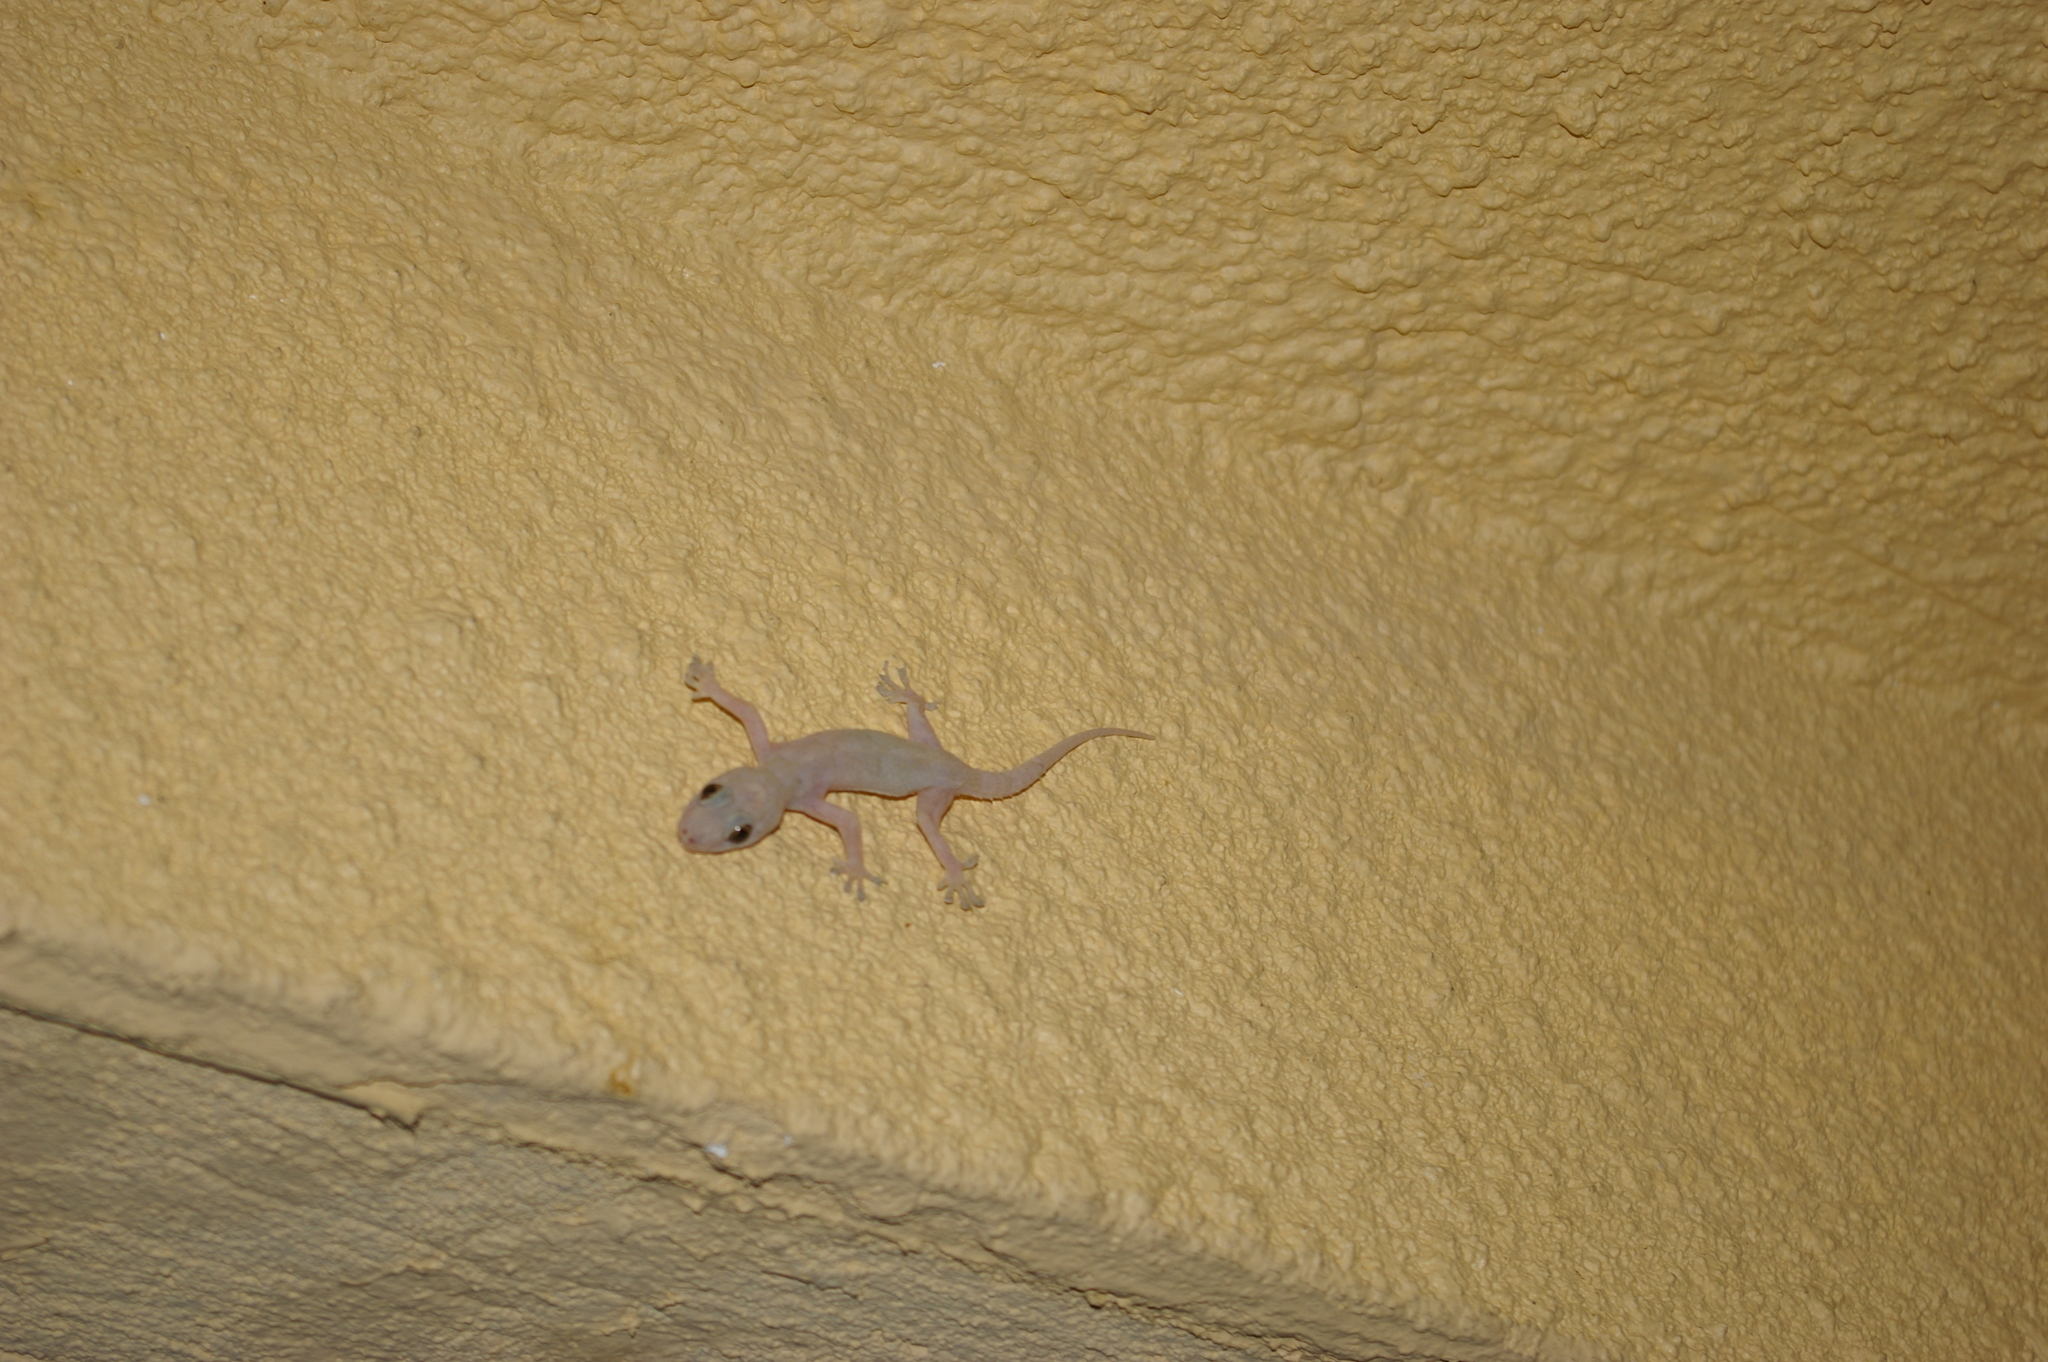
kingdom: Animalia
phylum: Chordata
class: Squamata
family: Gekkonidae
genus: Hemidactylus
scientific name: Hemidactylus mabouia
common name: House gecko
